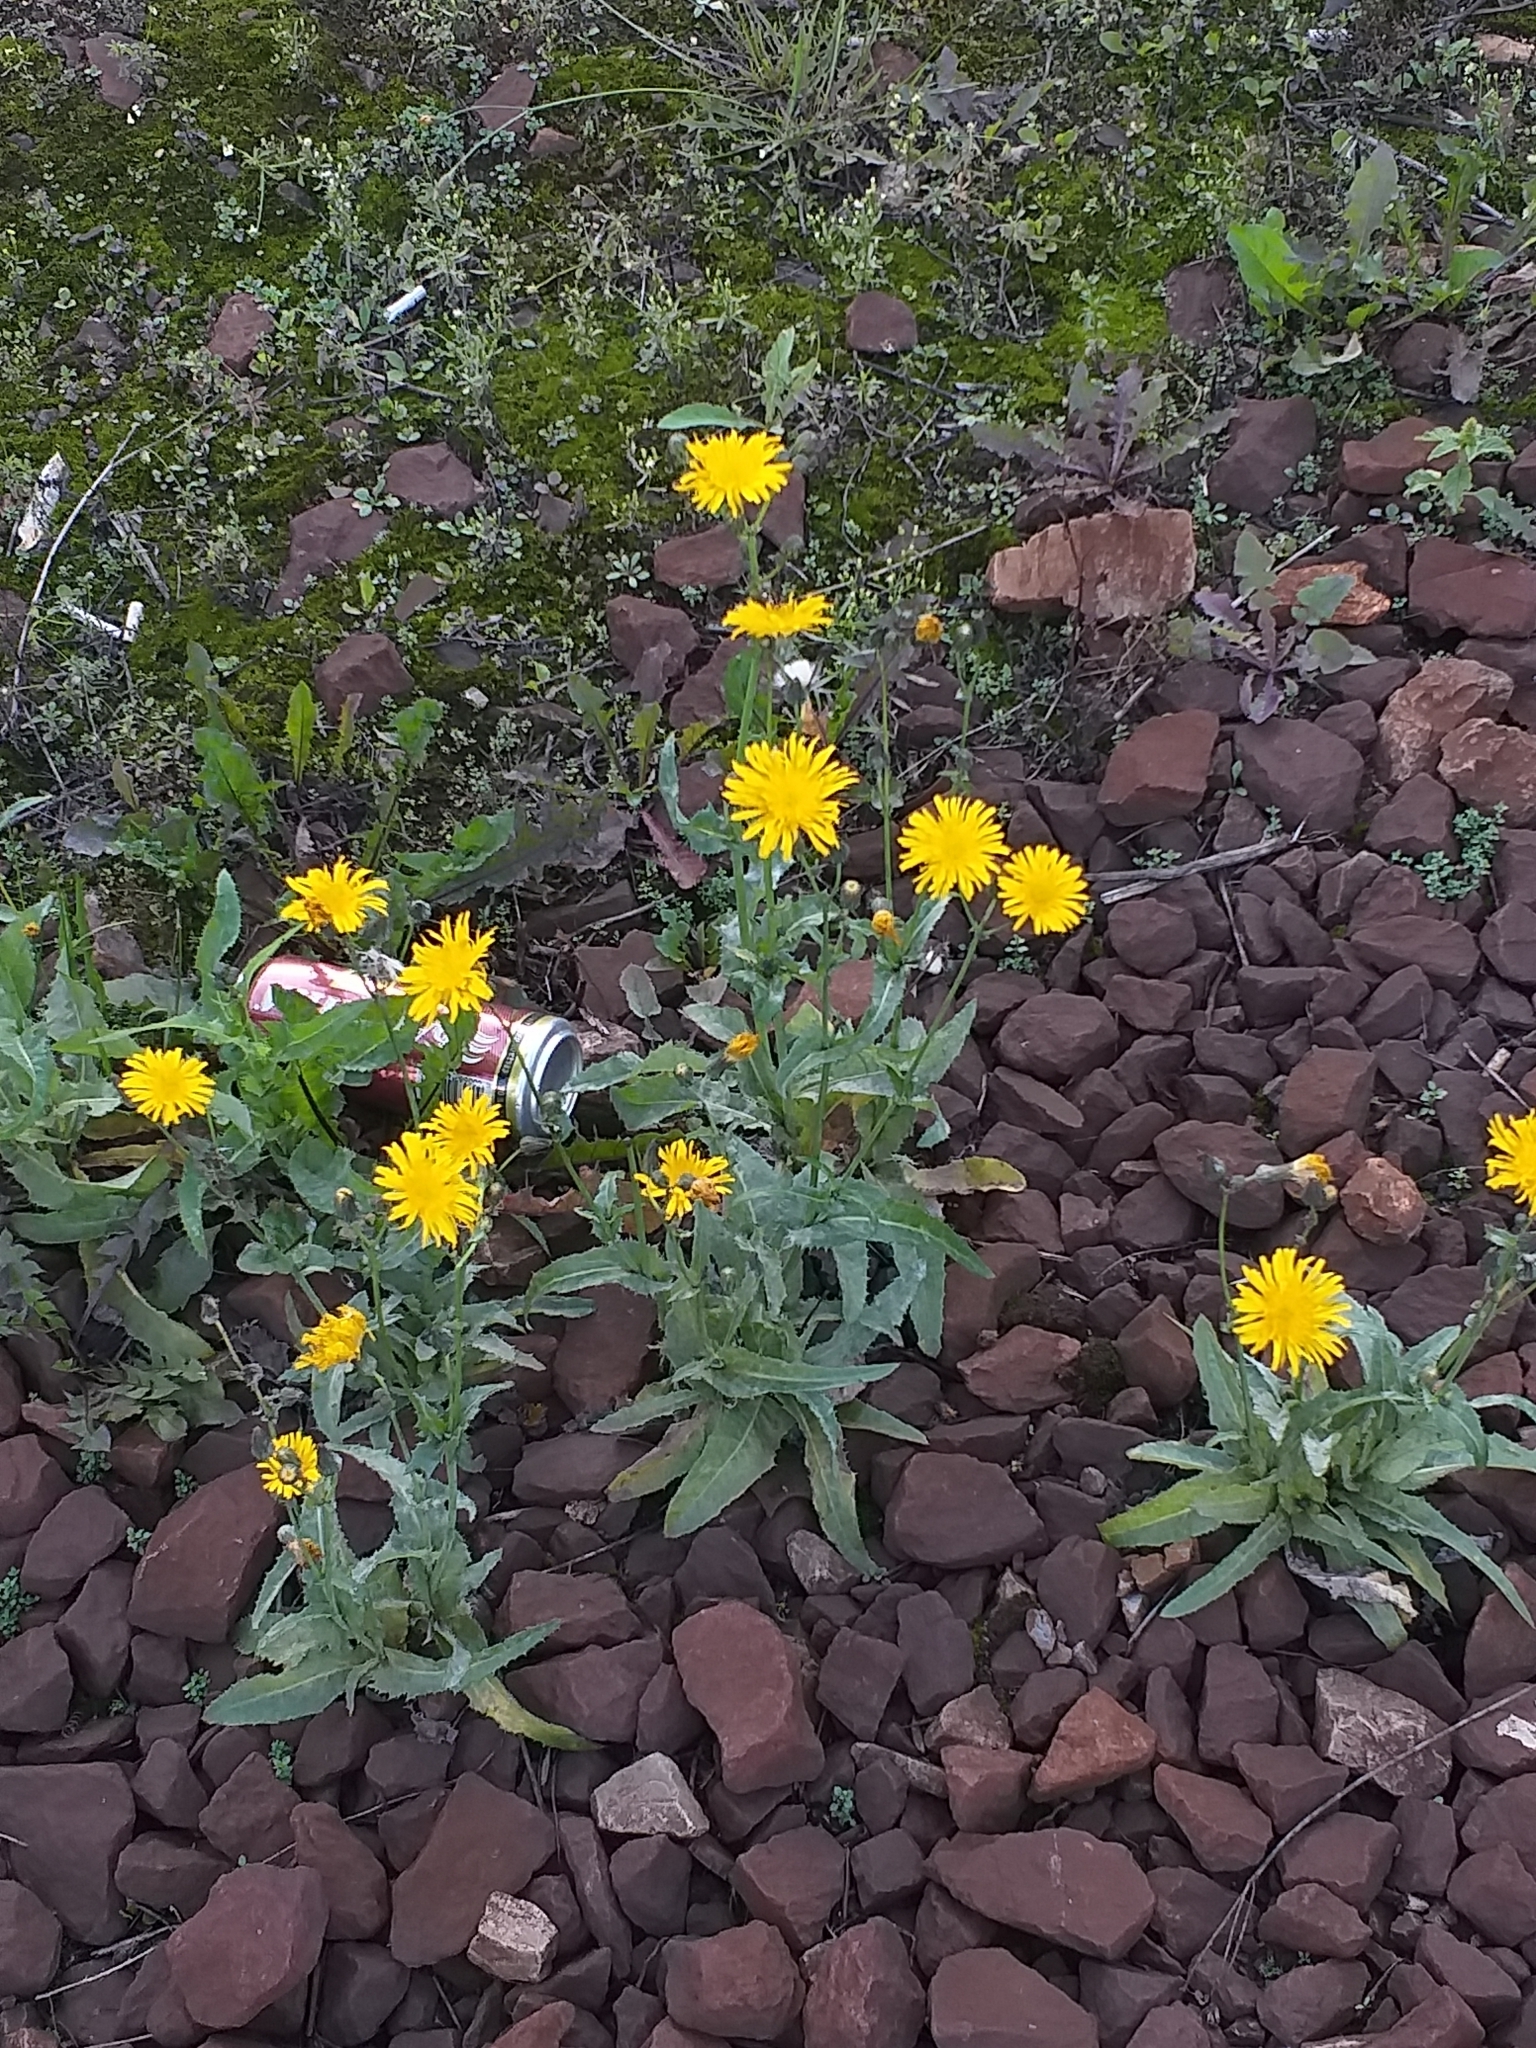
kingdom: Plantae
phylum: Tracheophyta
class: Magnoliopsida
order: Asterales
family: Asteraceae
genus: Sonchus
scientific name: Sonchus arvensis
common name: Perennial sow-thistle
